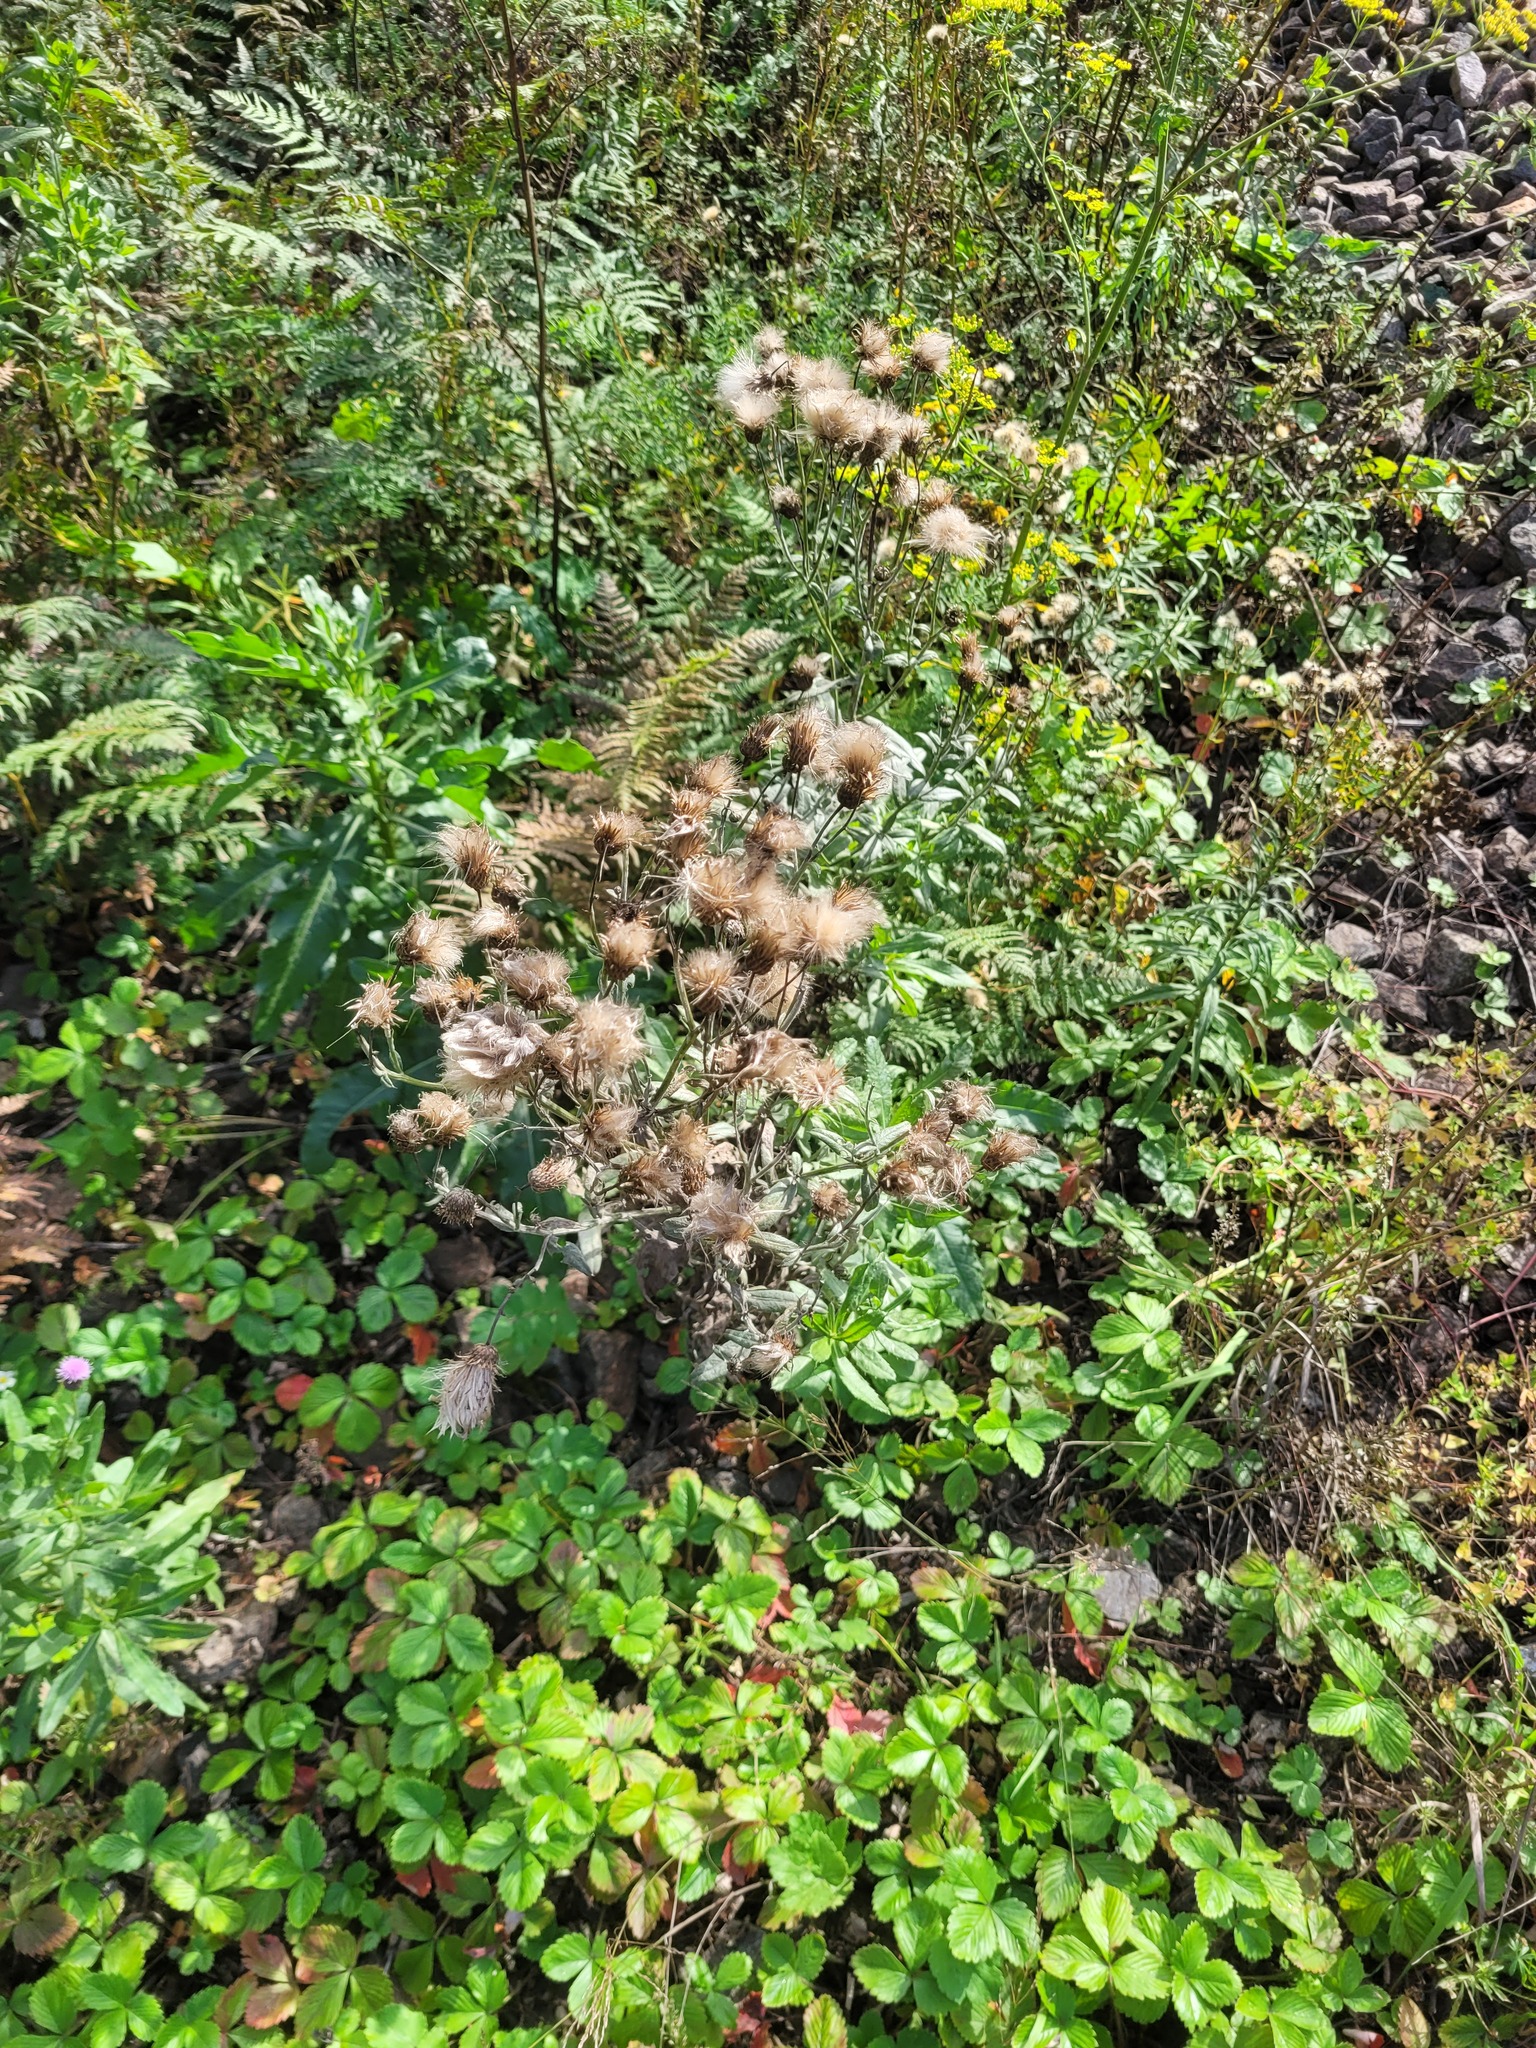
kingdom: Plantae
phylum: Tracheophyta
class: Magnoliopsida
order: Asterales
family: Asteraceae
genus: Cirsium
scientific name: Cirsium arvense
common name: Creeping thistle
